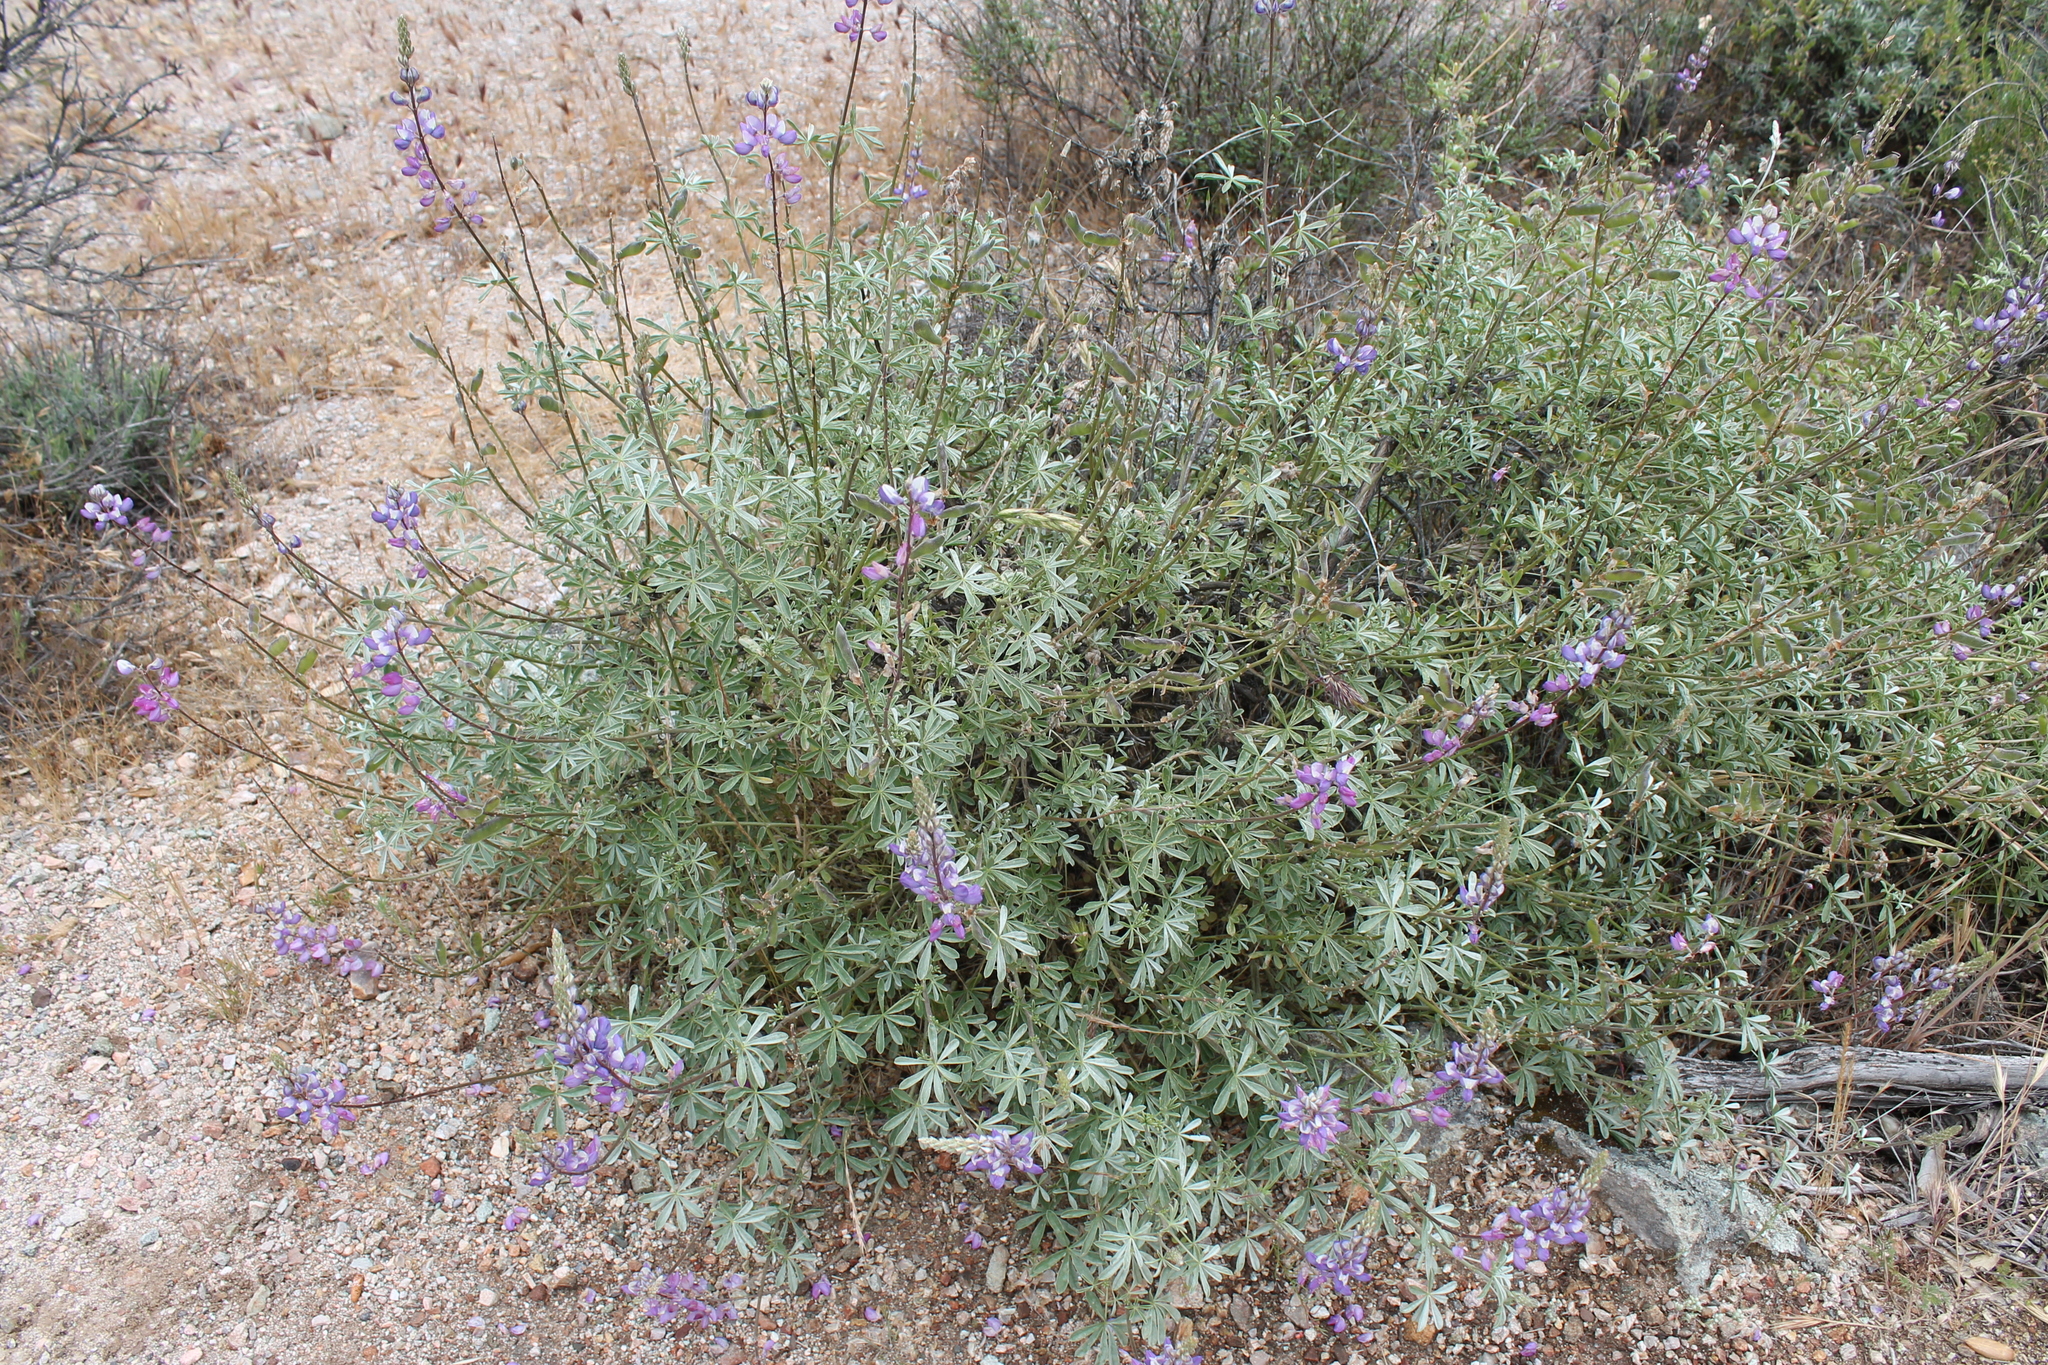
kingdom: Plantae
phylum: Tracheophyta
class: Magnoliopsida
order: Fabales
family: Fabaceae
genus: Lupinus
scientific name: Lupinus albifrons
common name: Foothill lupine
